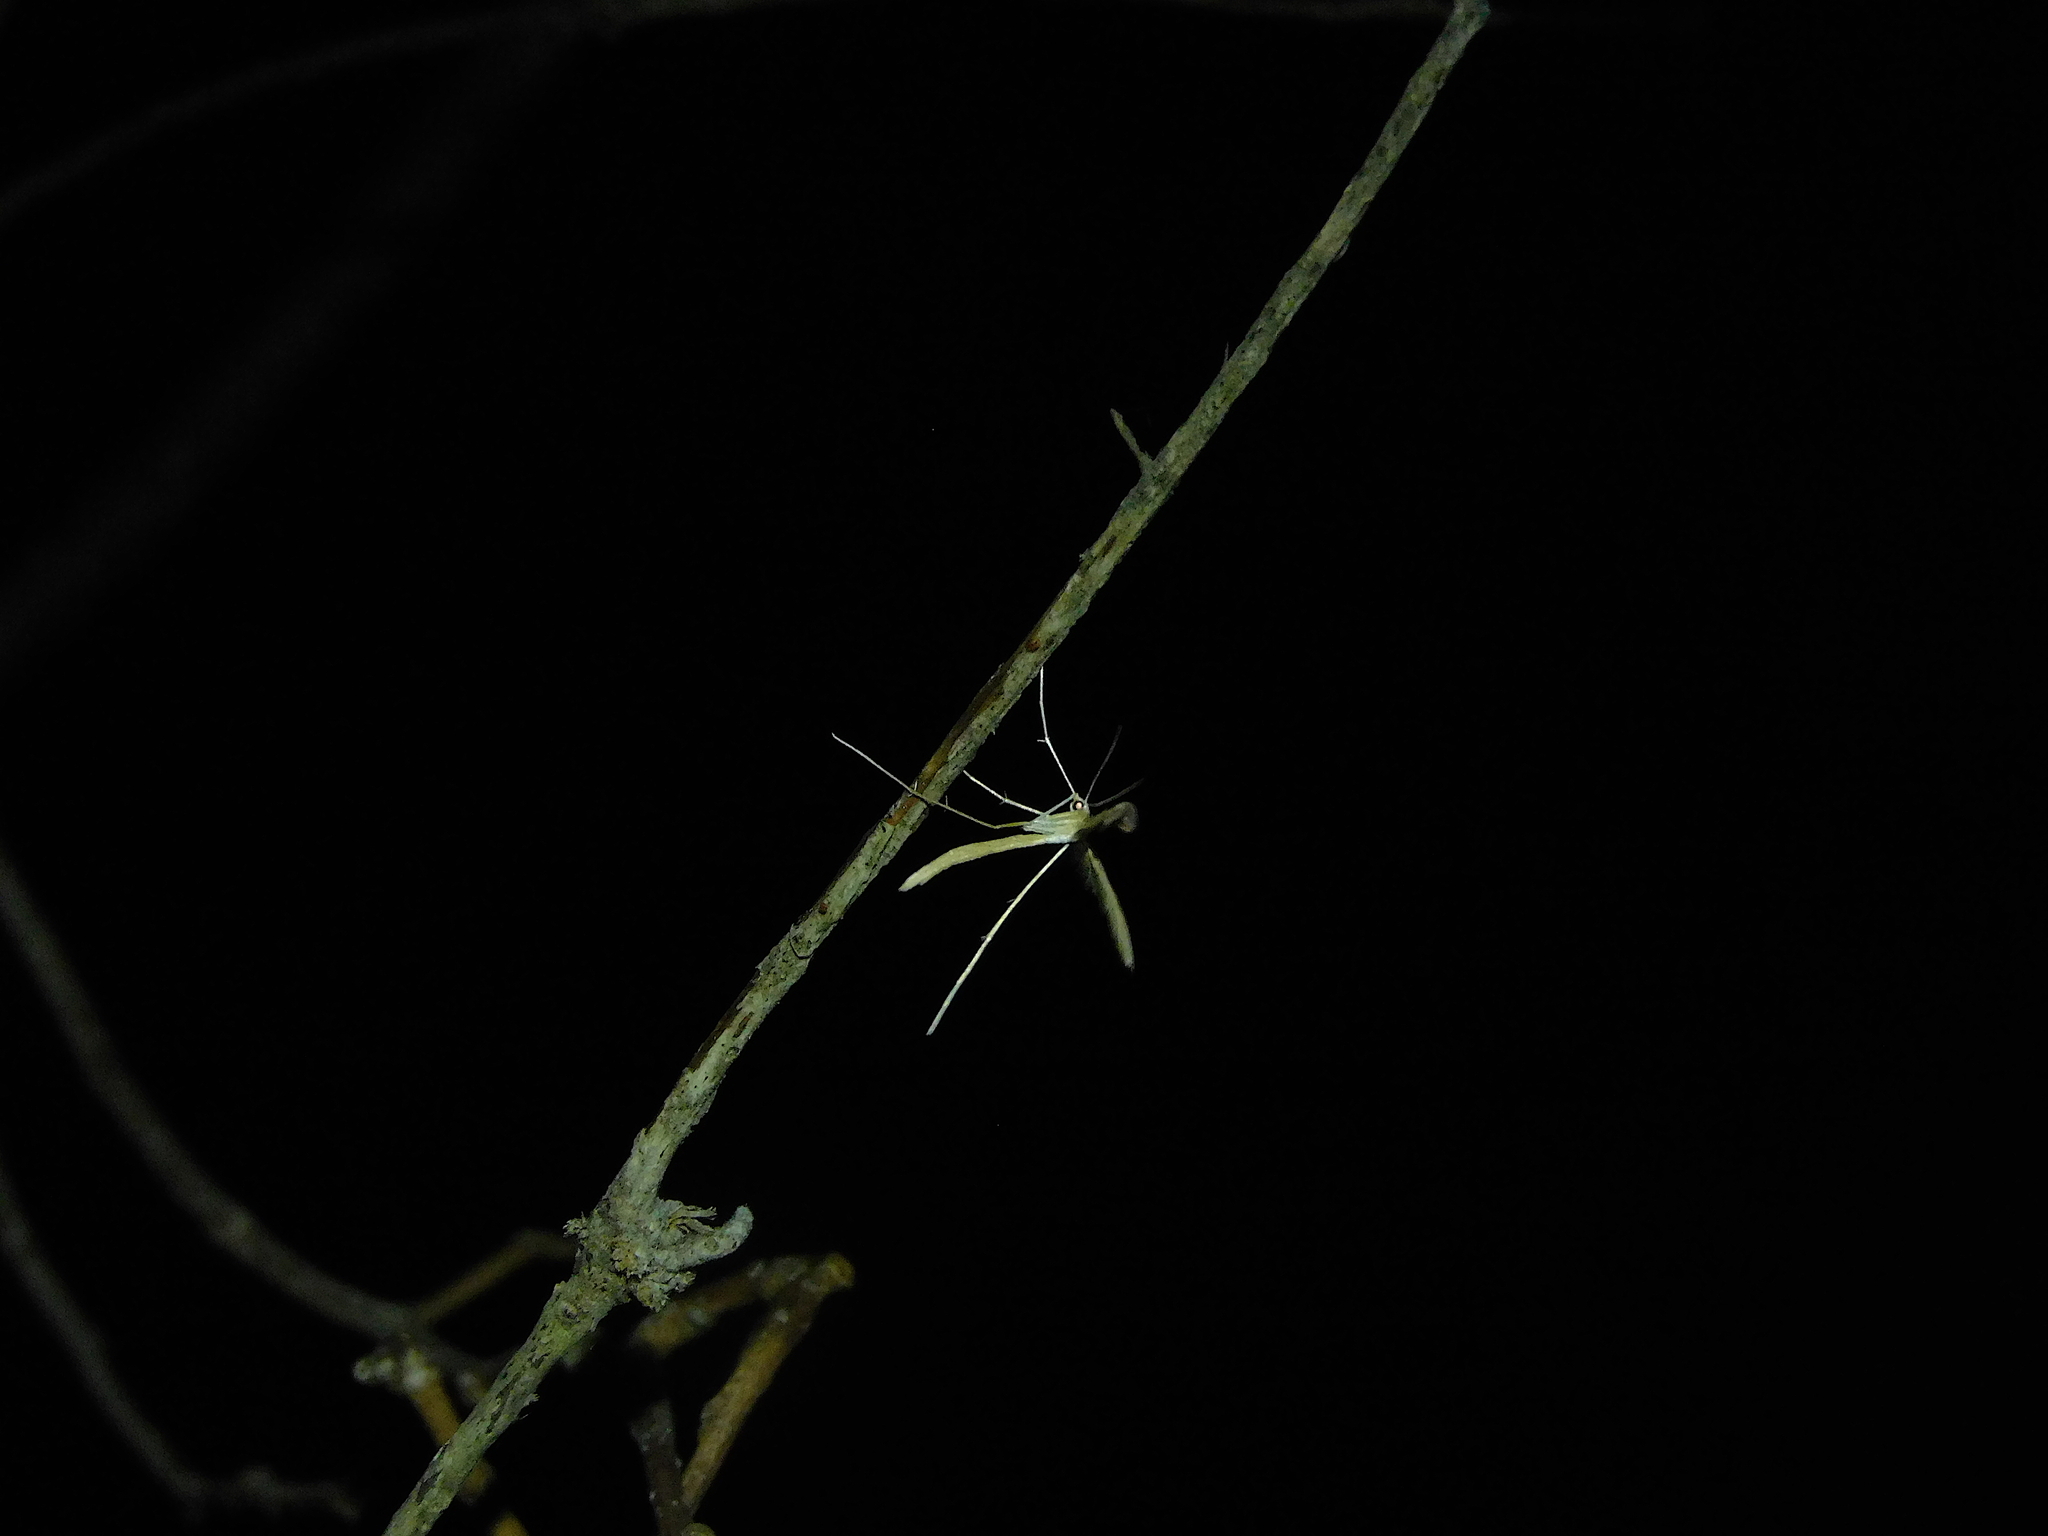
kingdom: Animalia
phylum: Arthropoda
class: Insecta
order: Lepidoptera
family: Pterophoridae
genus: Stenoptilia
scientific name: Stenoptilia zophodactylus
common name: Dowdy plume
